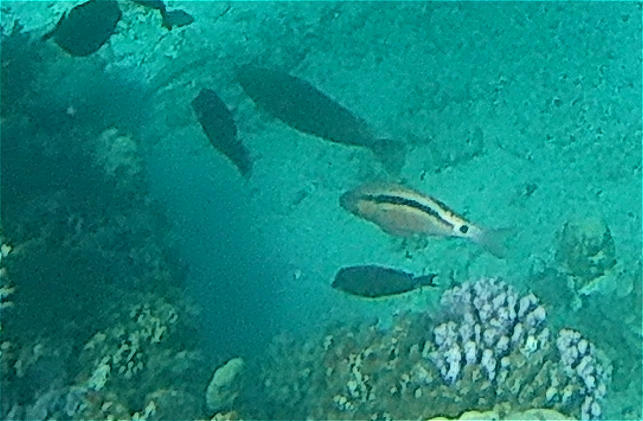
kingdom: Animalia
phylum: Chordata
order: Perciformes
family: Mullidae
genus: Parupeneus
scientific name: Parupeneus macronemus
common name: Long-barbel goatfish
